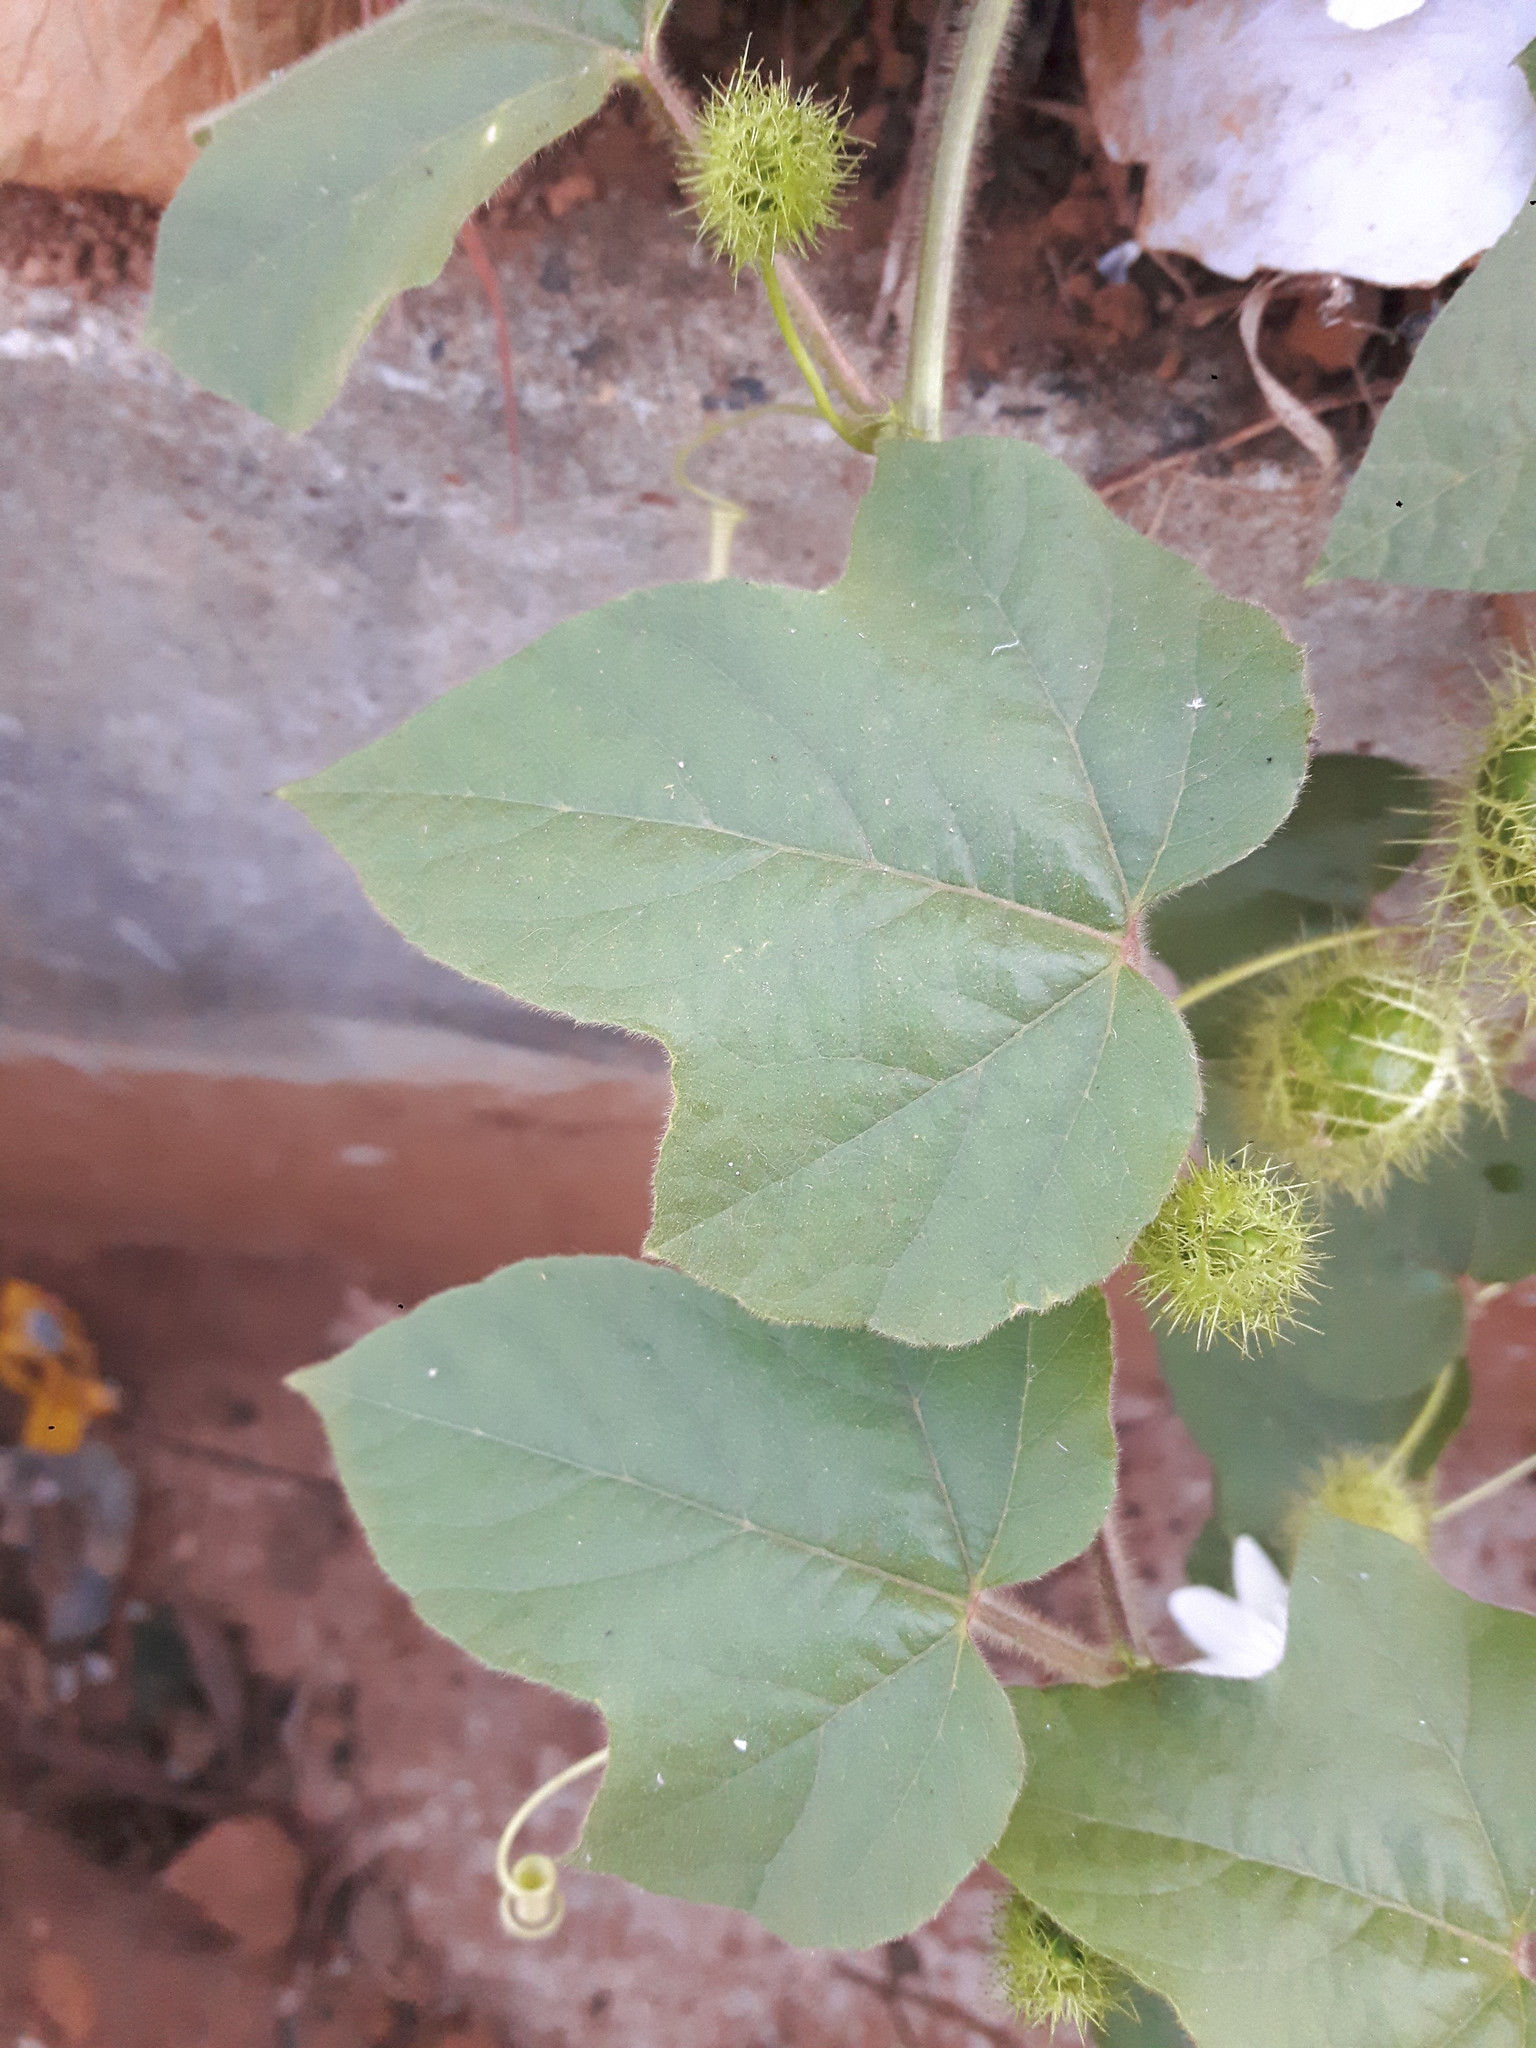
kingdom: Plantae
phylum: Tracheophyta
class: Magnoliopsida
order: Malpighiales
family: Passifloraceae
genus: Passiflora
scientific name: Passiflora foetida
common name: Fetid passionflower
